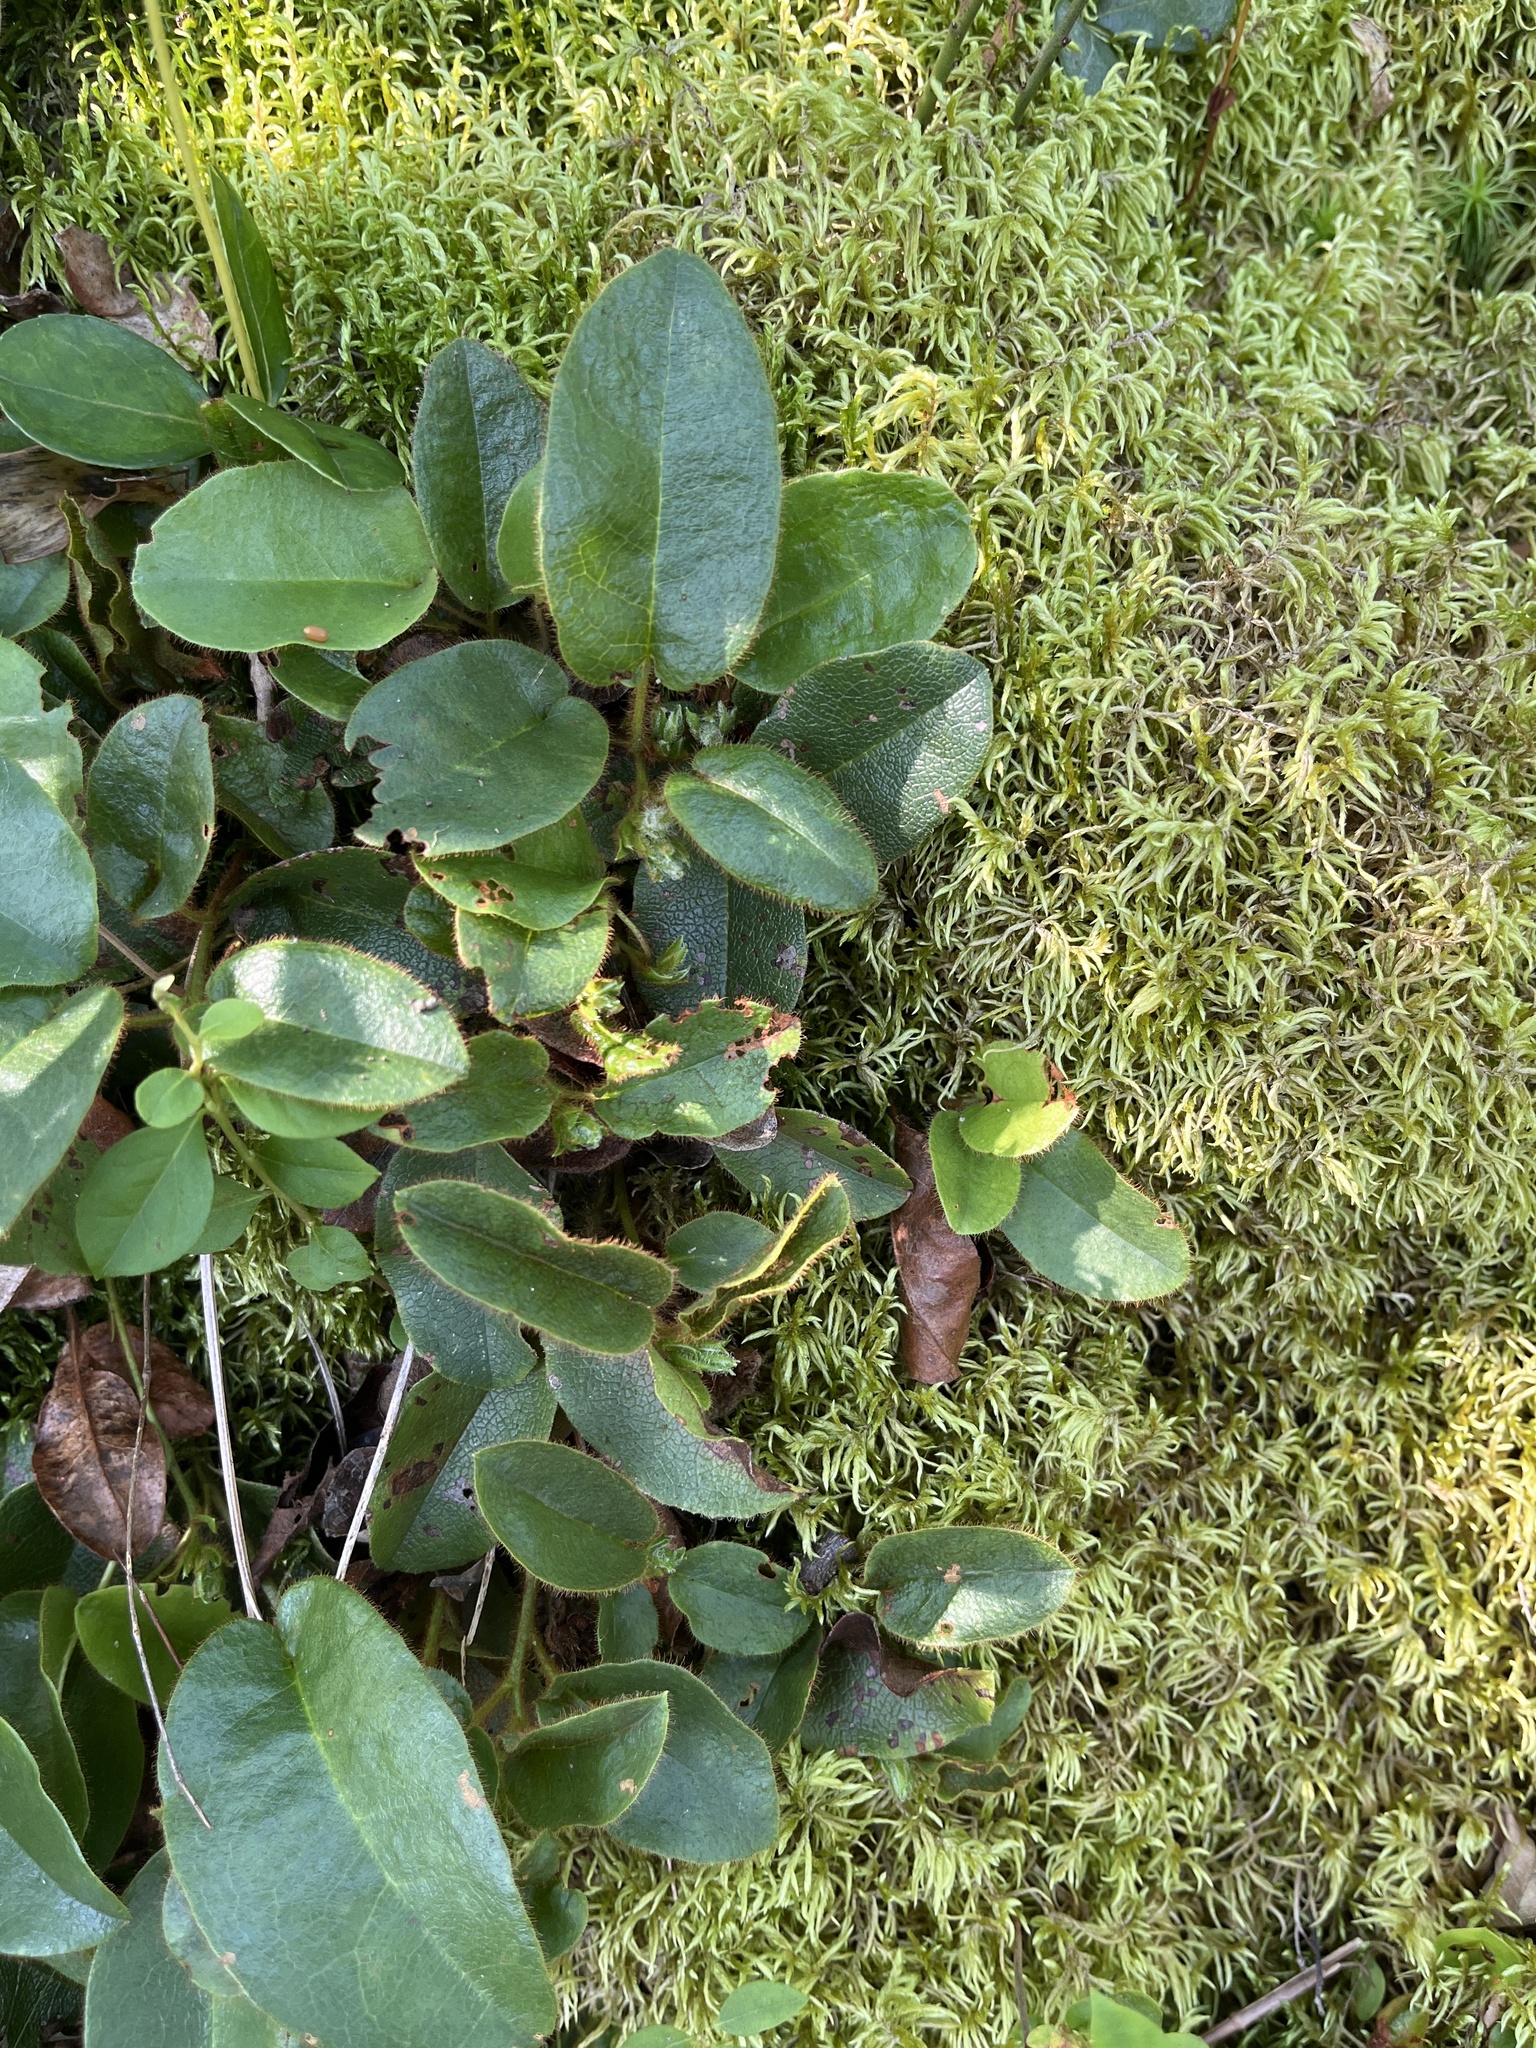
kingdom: Plantae
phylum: Tracheophyta
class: Magnoliopsida
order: Ericales
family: Ericaceae
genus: Epigaea
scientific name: Epigaea repens
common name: Gravelroot
